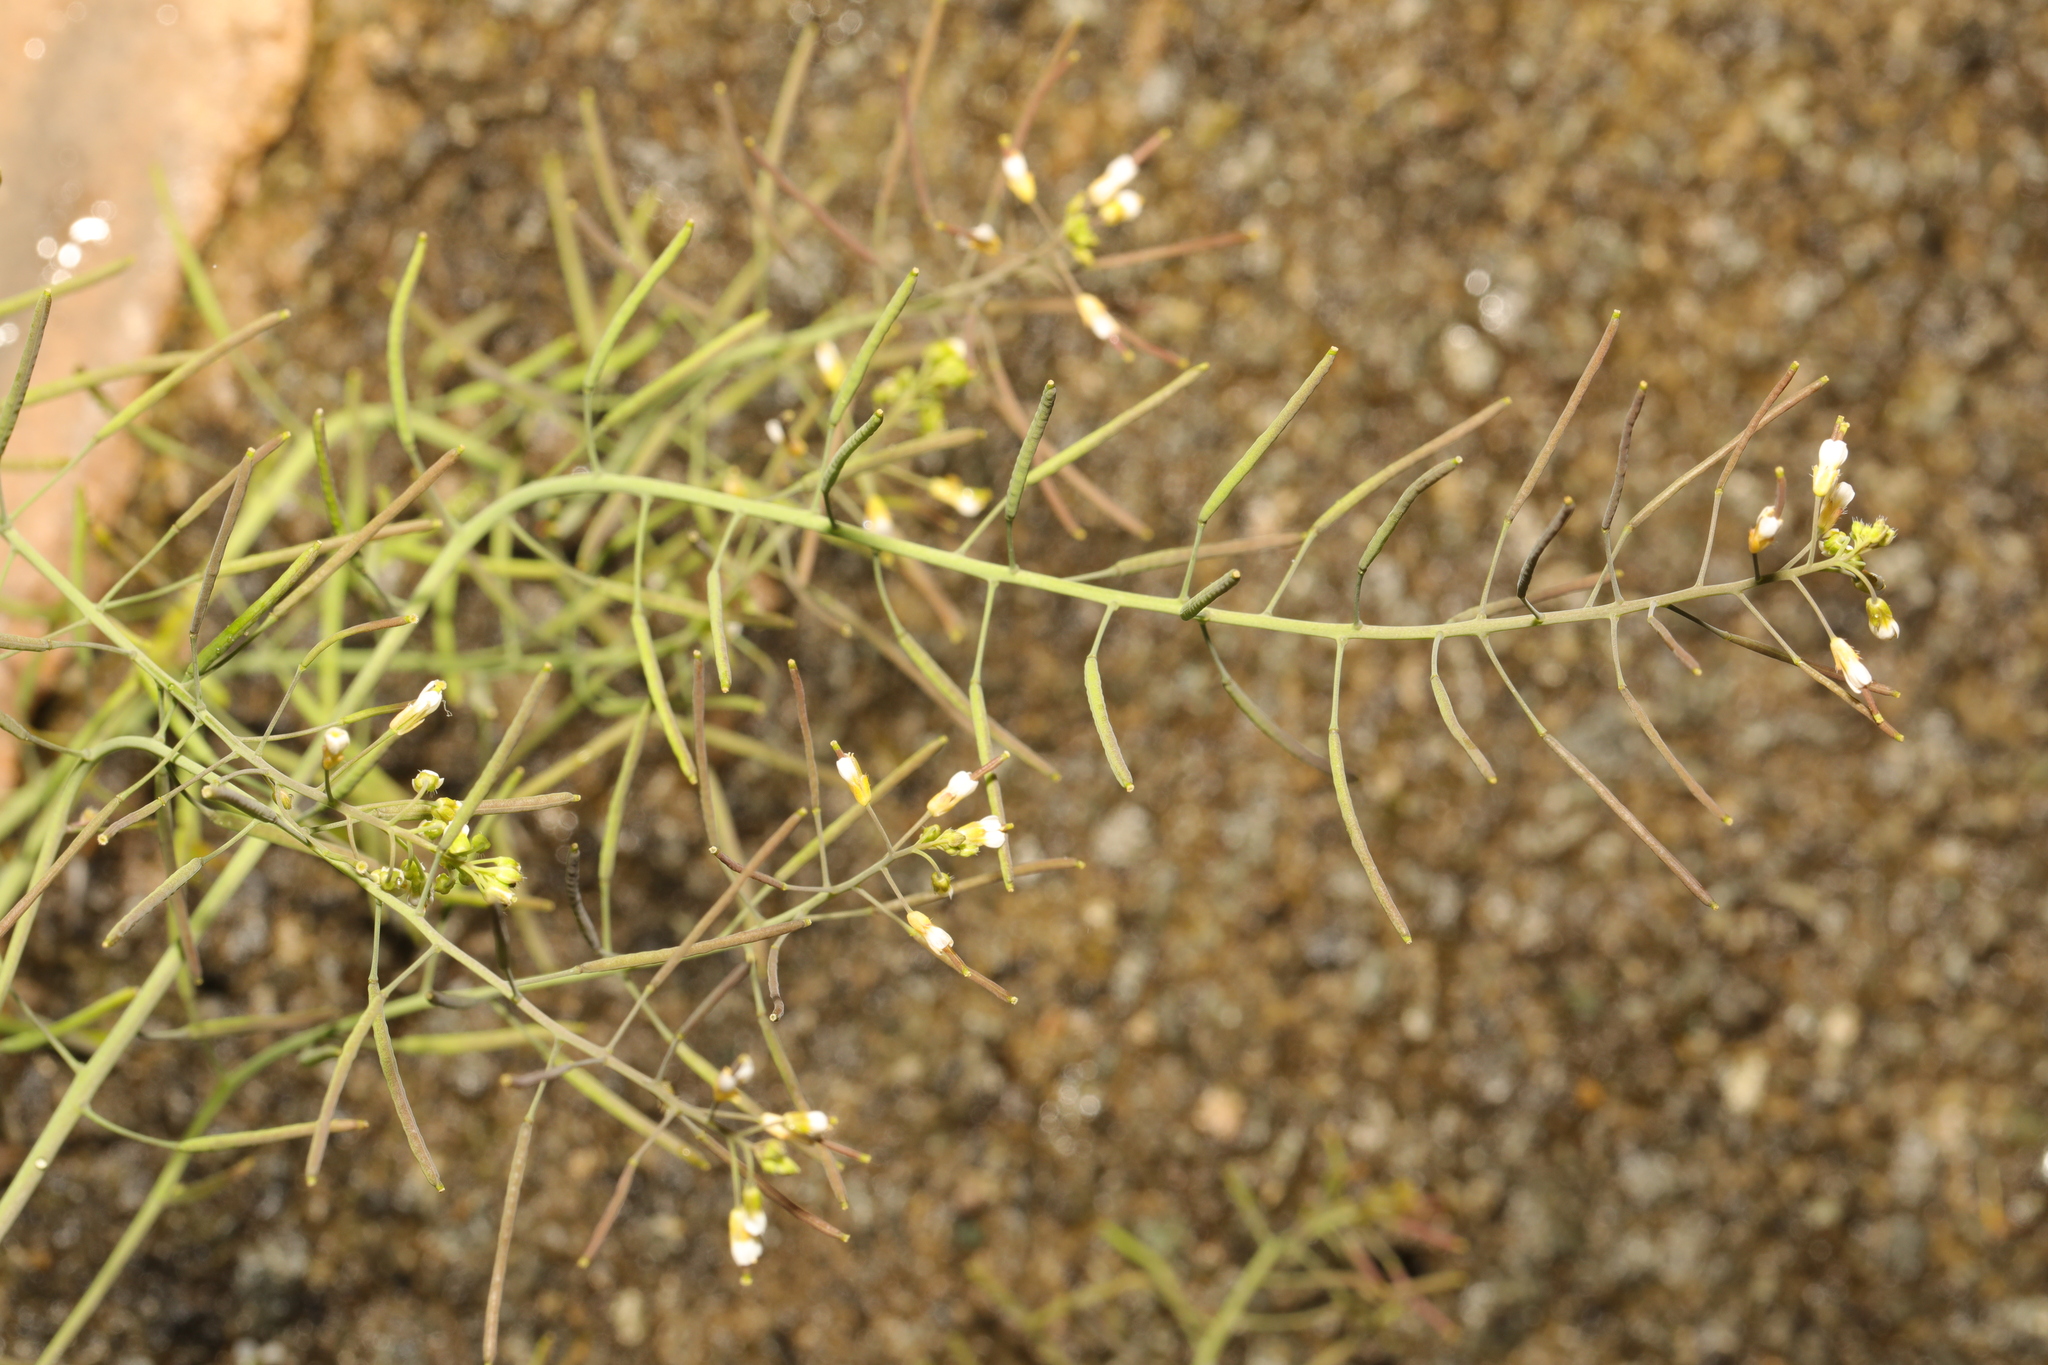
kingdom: Plantae
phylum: Tracheophyta
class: Magnoliopsida
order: Brassicales
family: Brassicaceae
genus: Arabidopsis
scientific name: Arabidopsis thaliana
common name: Thale cress
